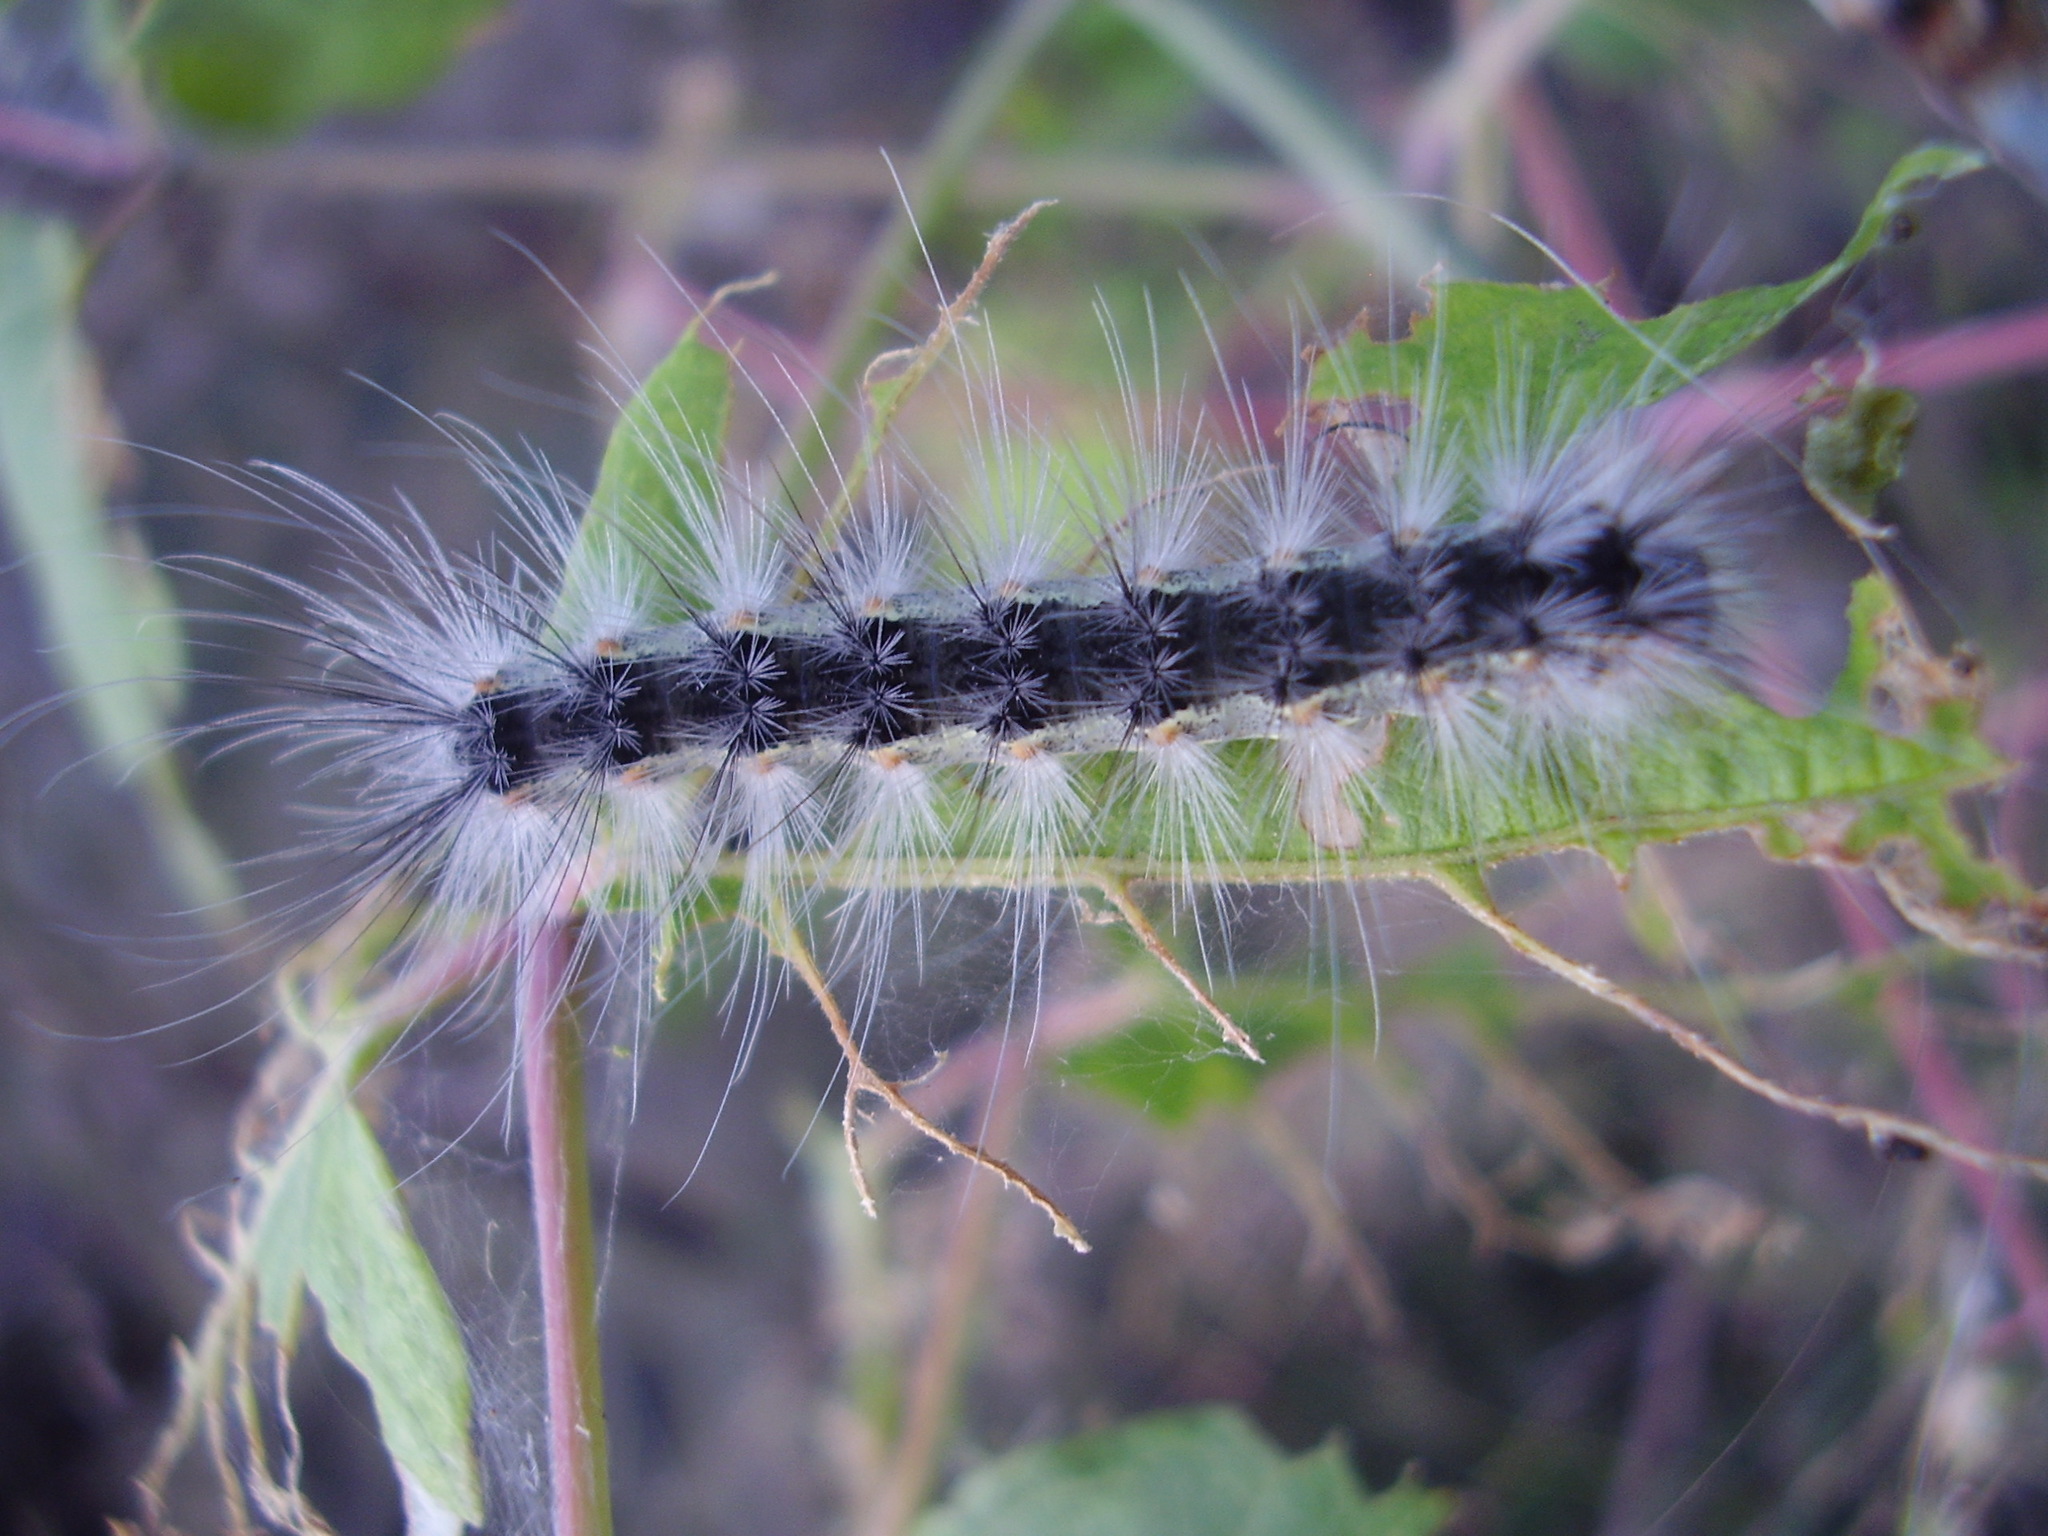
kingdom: Animalia
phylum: Arthropoda
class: Insecta
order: Lepidoptera
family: Erebidae
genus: Hyphantria
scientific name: Hyphantria cunea
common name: American white moth
